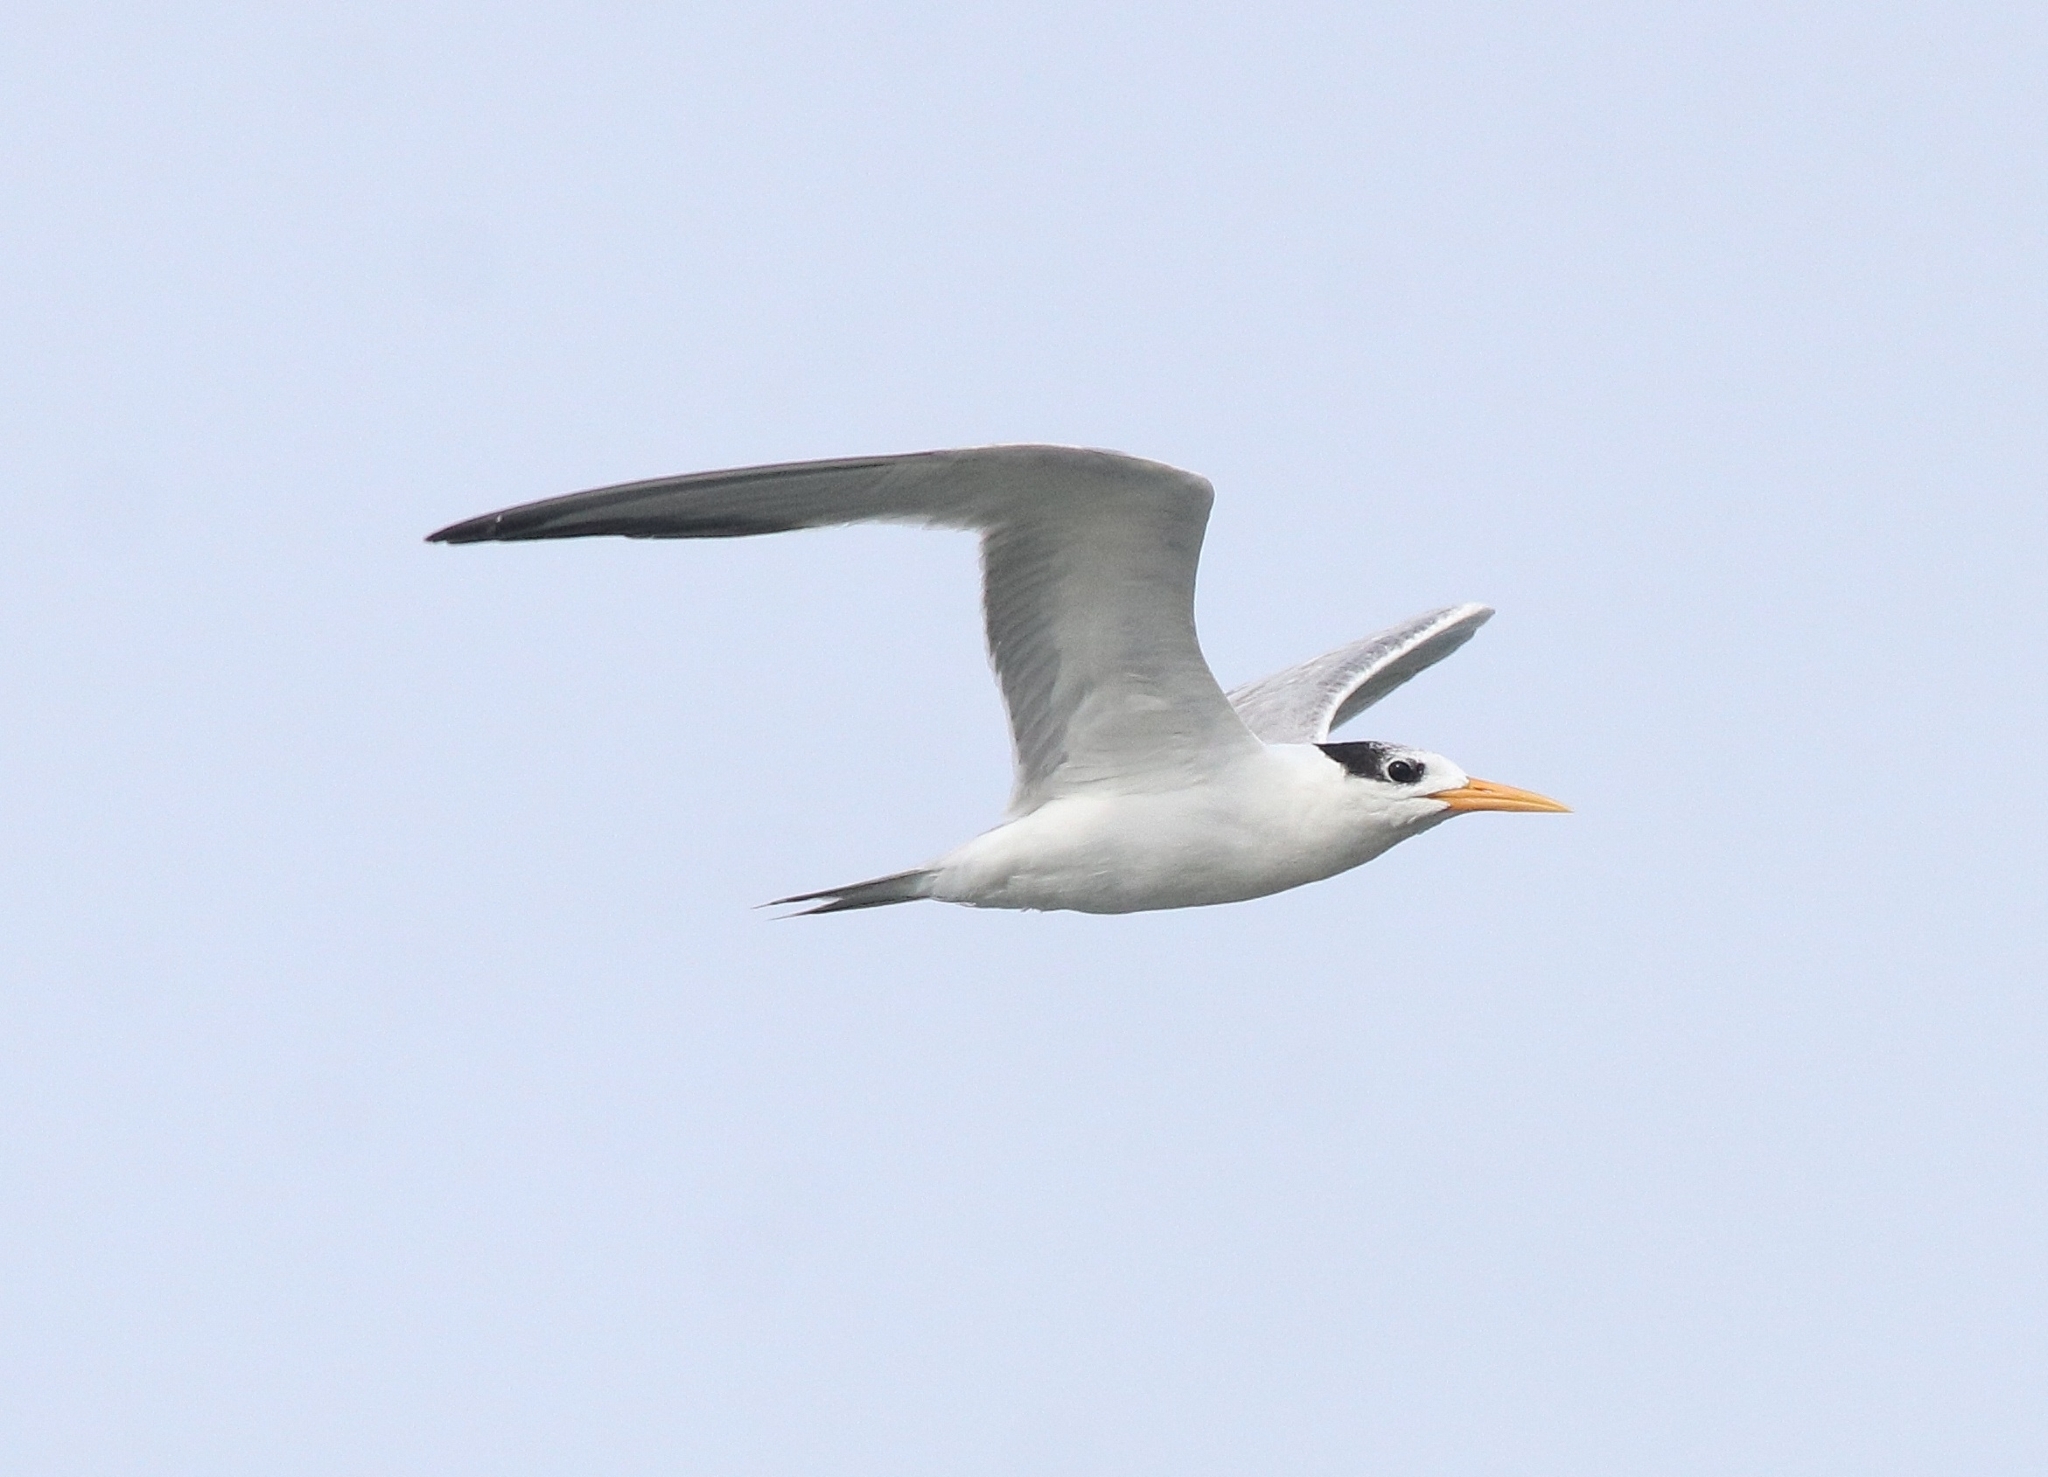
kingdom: Animalia
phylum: Chordata
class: Aves
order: Charadriiformes
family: Laridae
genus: Thalasseus
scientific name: Thalasseus bengalensis
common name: Lesser crested tern
